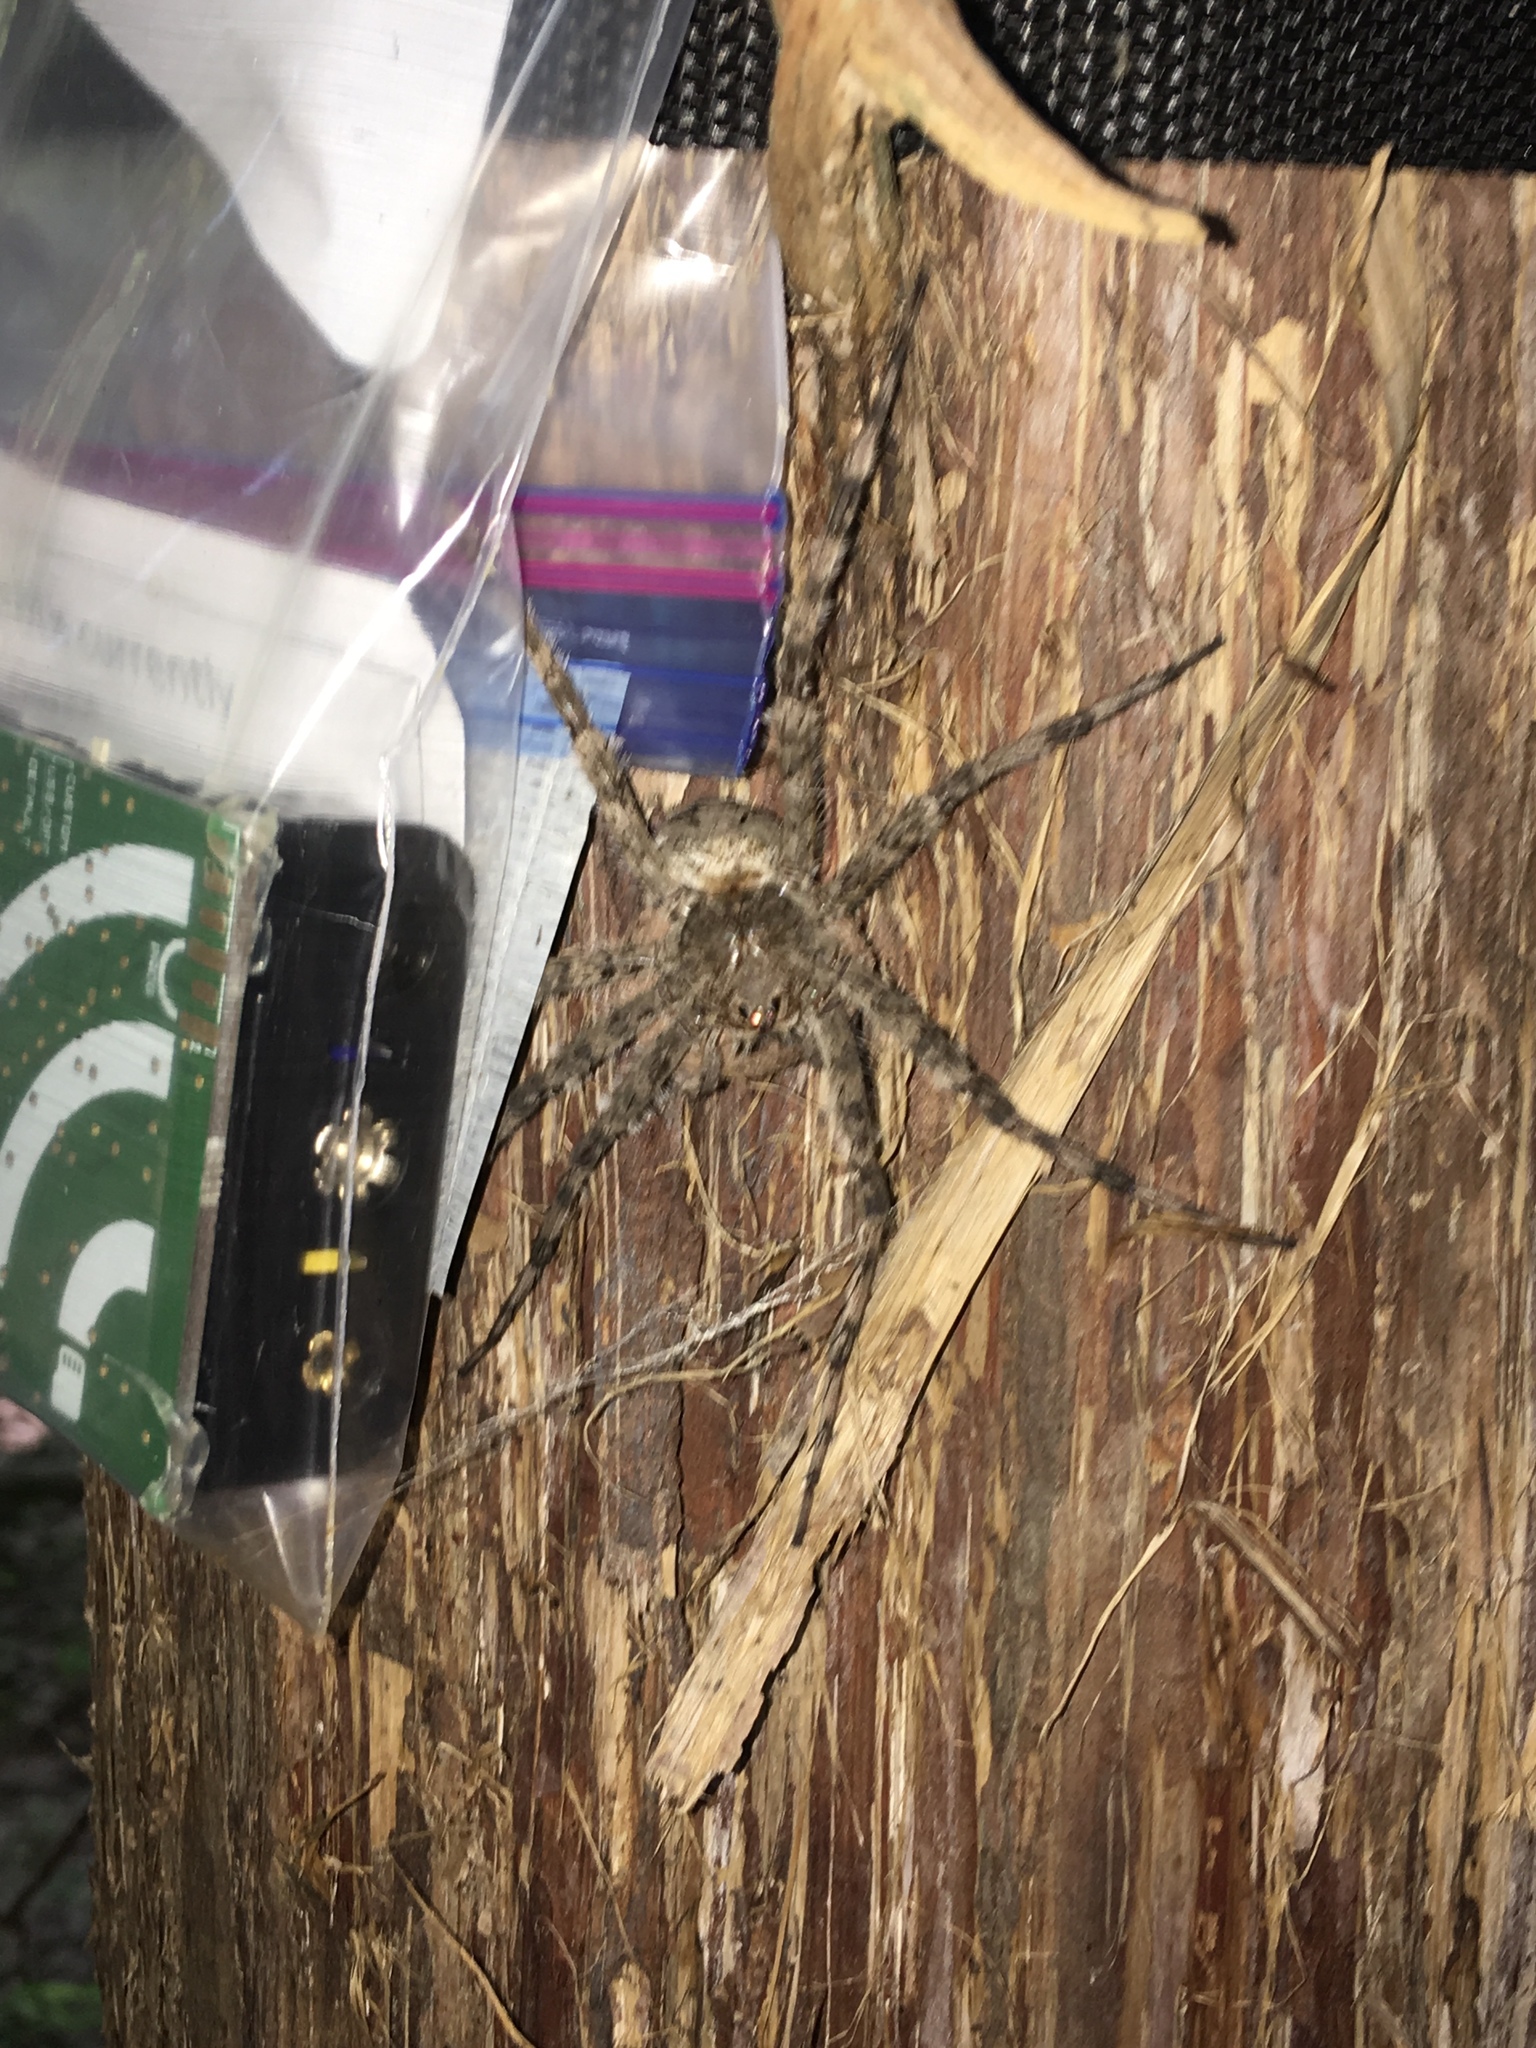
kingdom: Animalia
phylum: Arthropoda
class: Arachnida
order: Araneae
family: Pisauridae
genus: Dolomedes
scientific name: Dolomedes albineus
